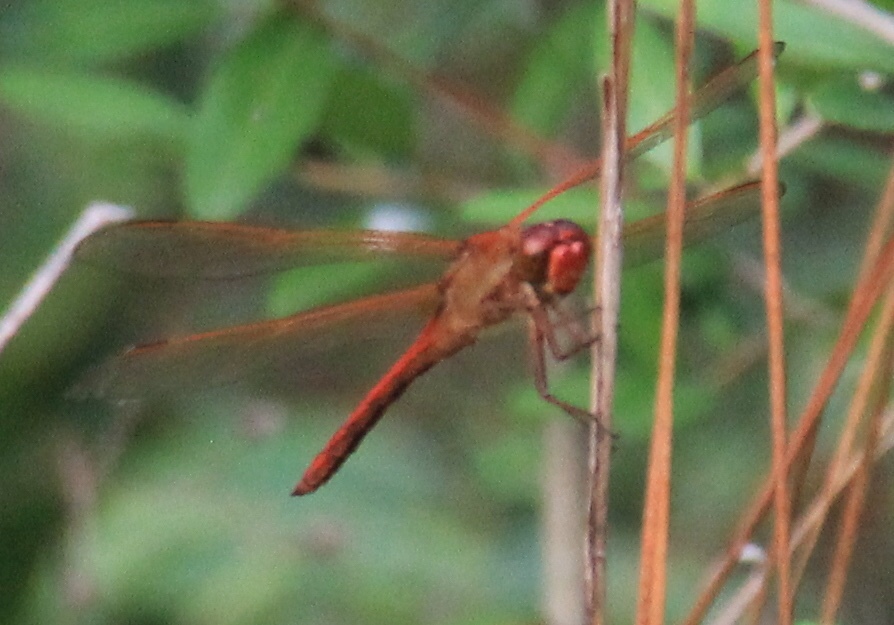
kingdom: Animalia
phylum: Arthropoda
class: Insecta
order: Odonata
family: Libellulidae
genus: Libellula
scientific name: Libellula needhami
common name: Needham's skimmer
